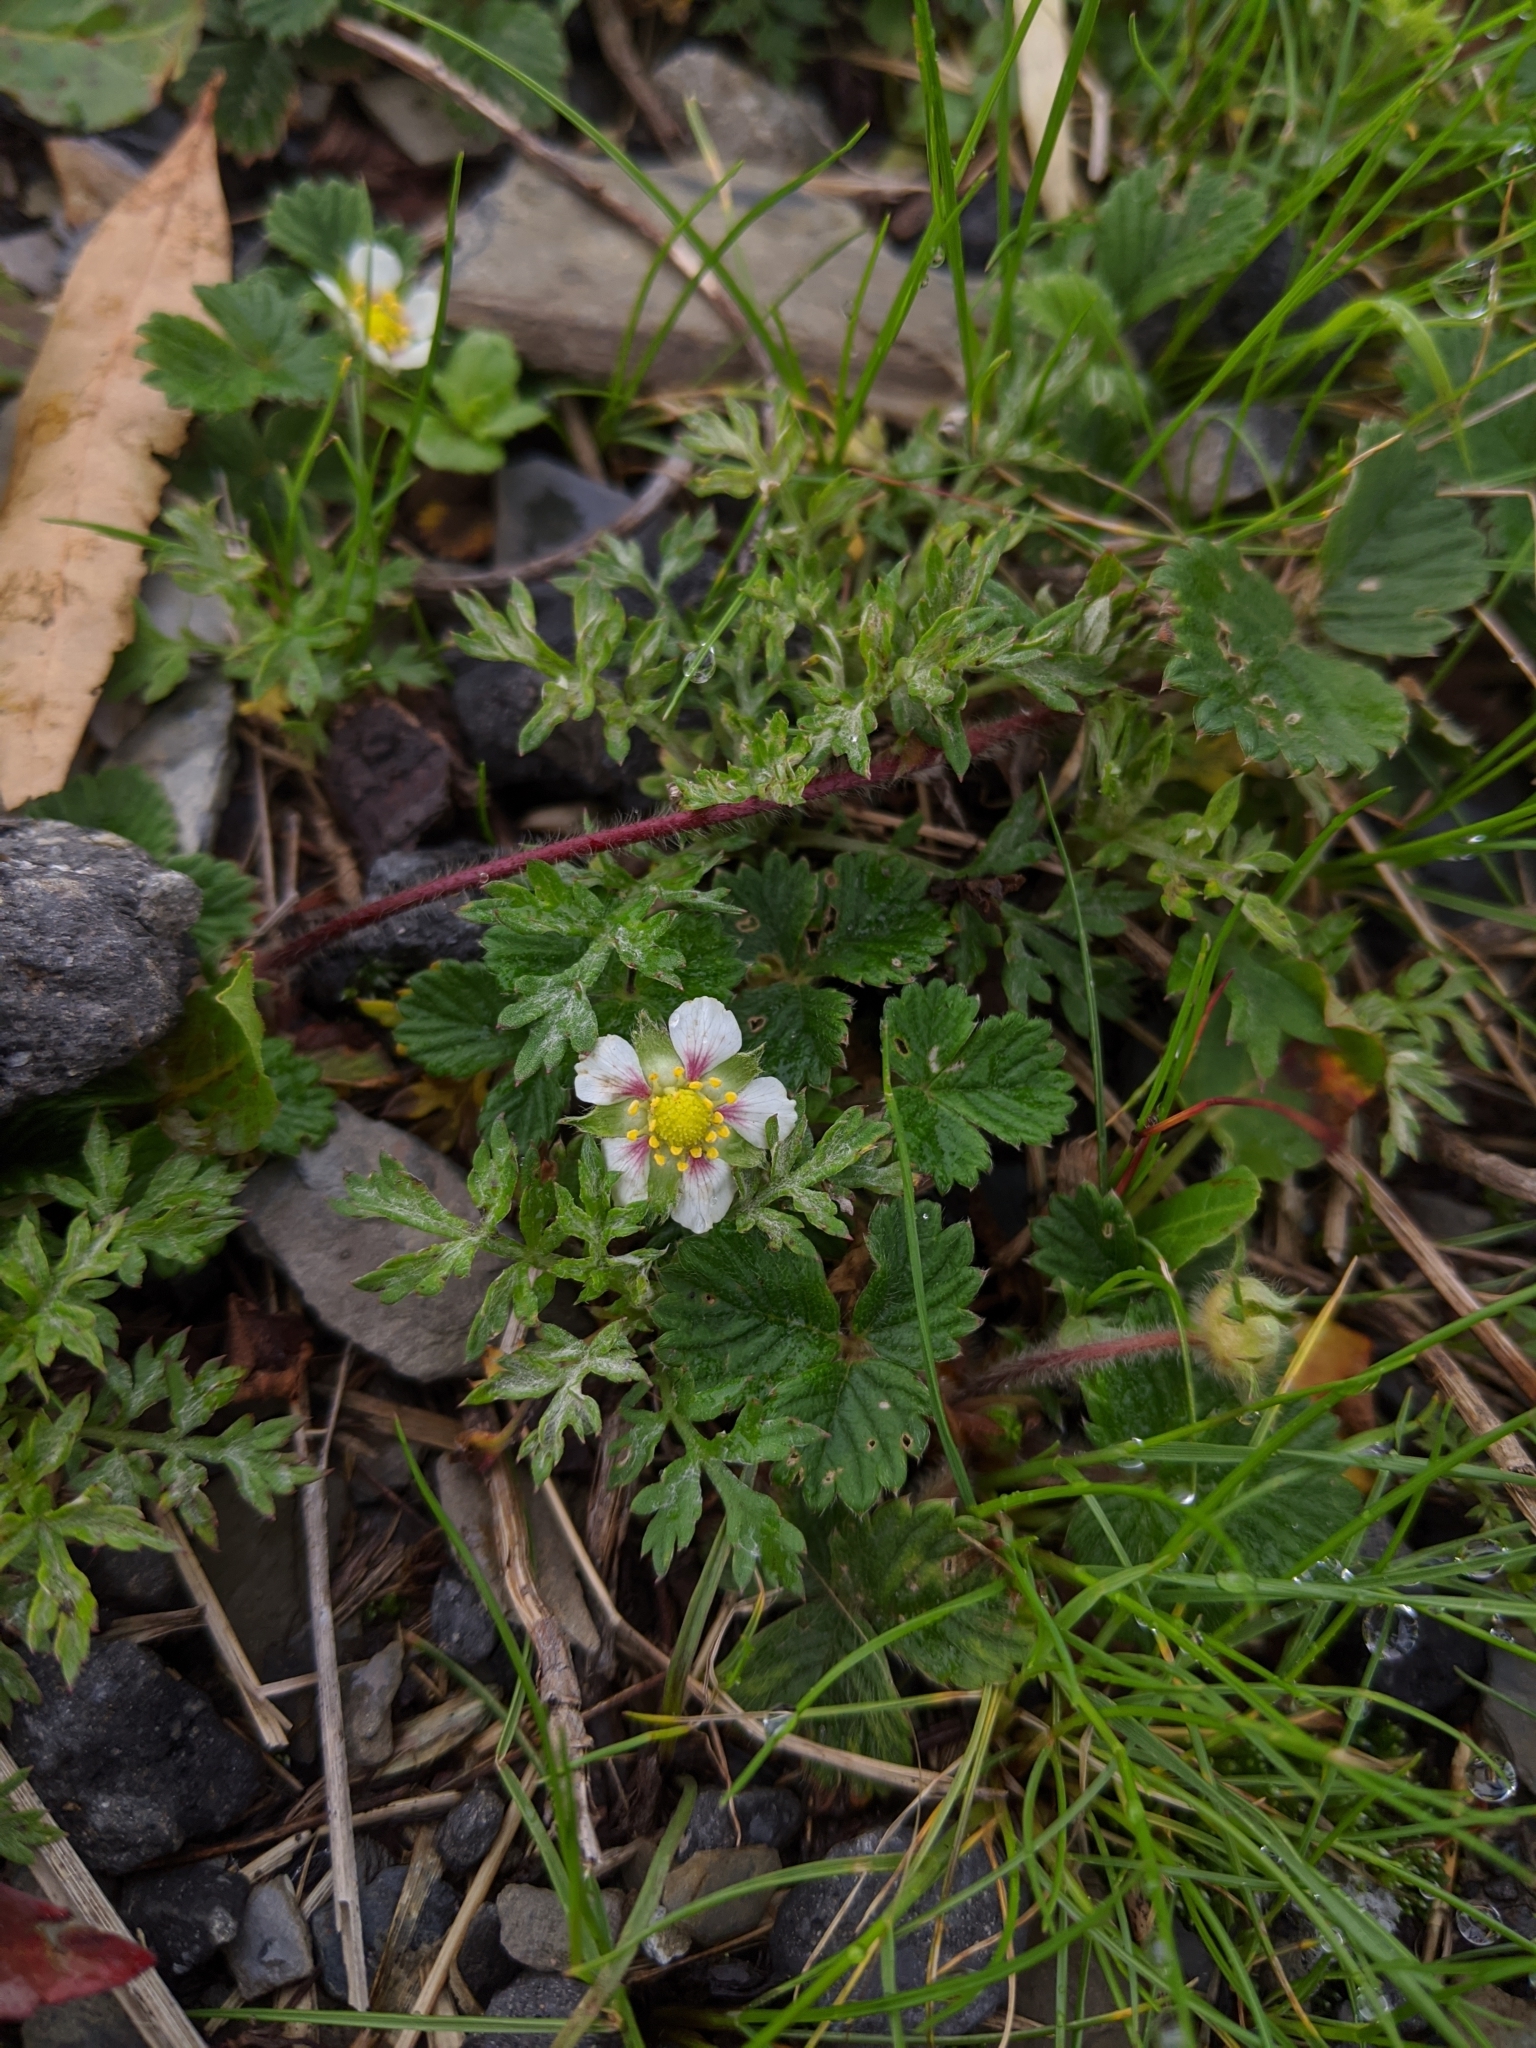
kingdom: Plantae
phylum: Tracheophyta
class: Magnoliopsida
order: Rosales
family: Rosaceae
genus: Fragaria
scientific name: Fragaria nilgerrensis
